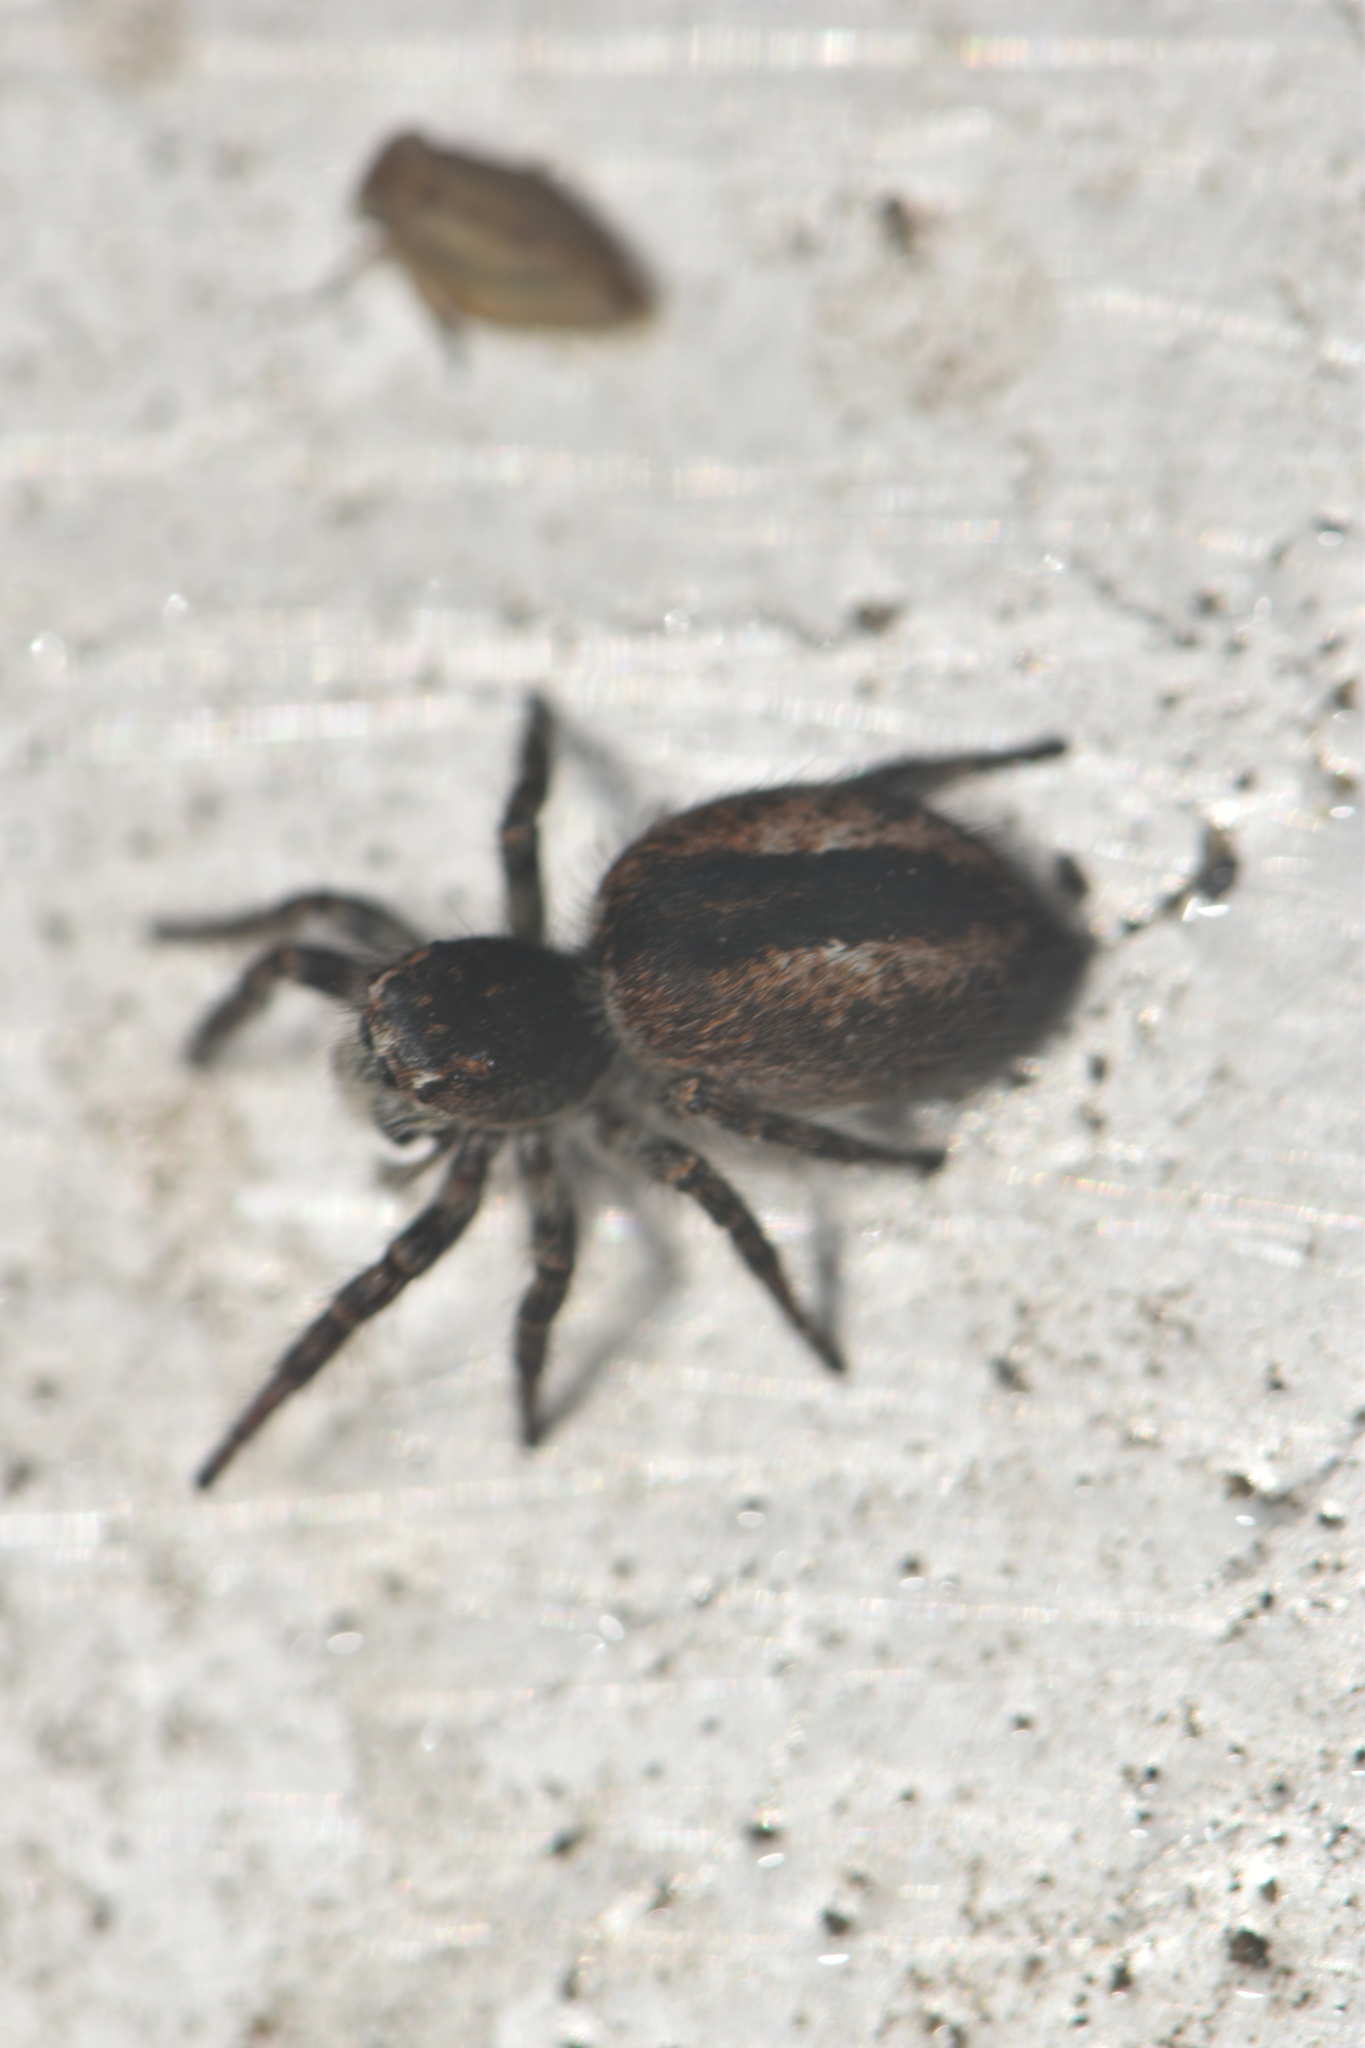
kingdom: Animalia
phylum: Arthropoda
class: Arachnida
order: Araneae
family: Salticidae
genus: Philaeus
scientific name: Philaeus chrysops
